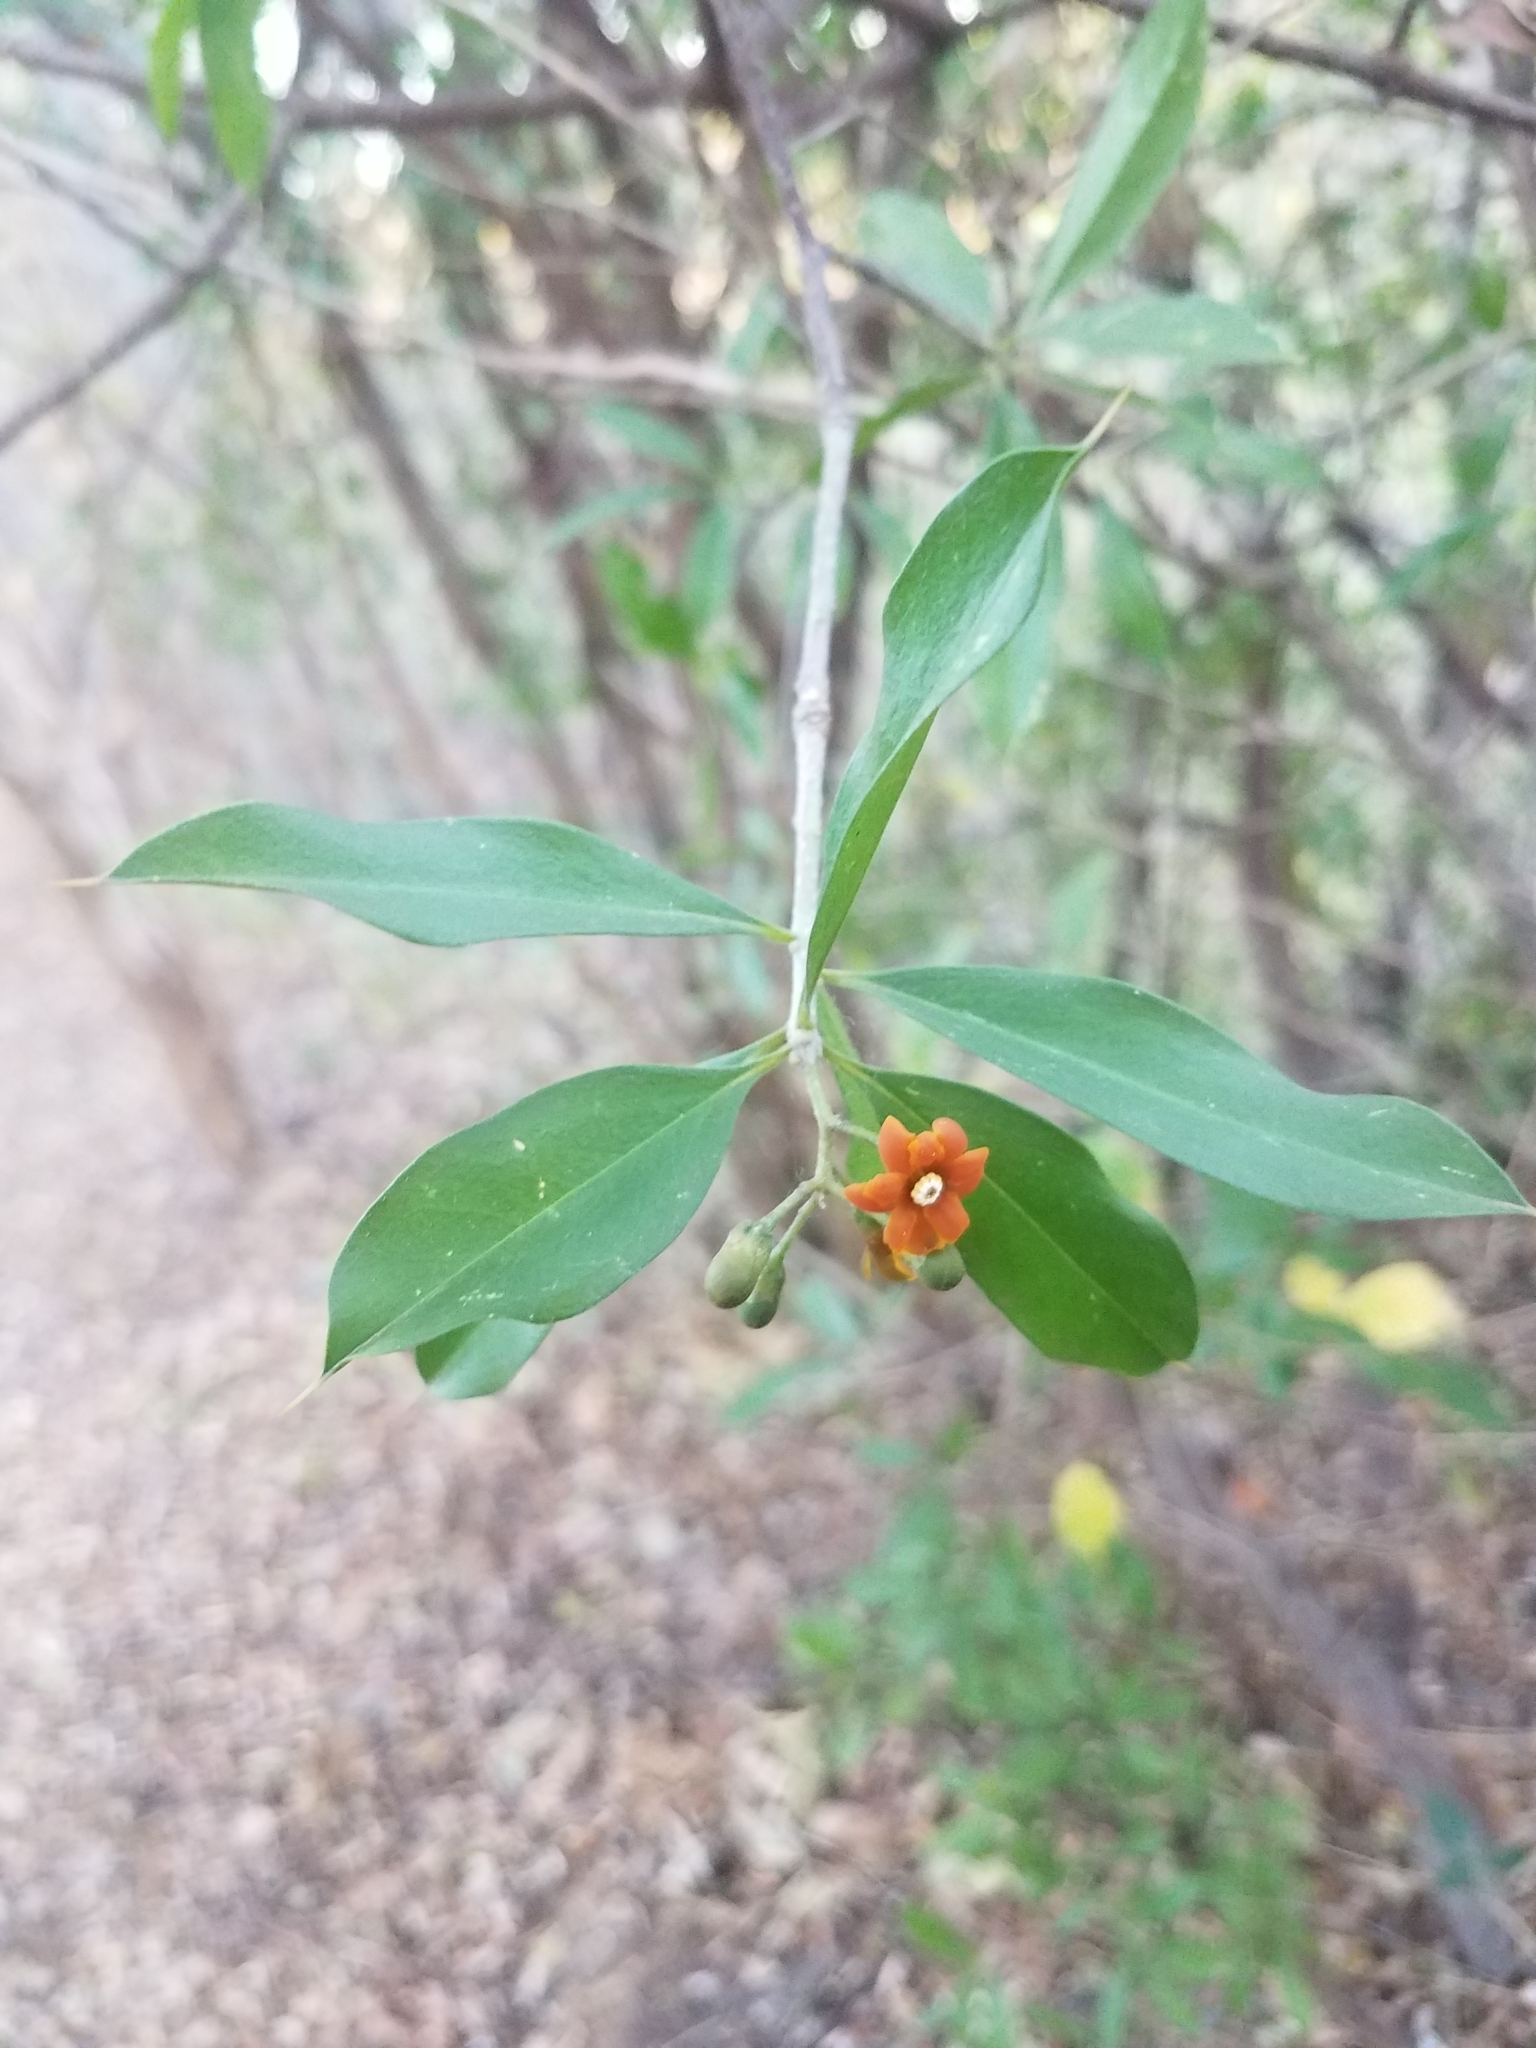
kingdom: Plantae
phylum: Tracheophyta
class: Magnoliopsida
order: Ericales
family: Primulaceae
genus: Bonellia
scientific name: Bonellia nervosa
